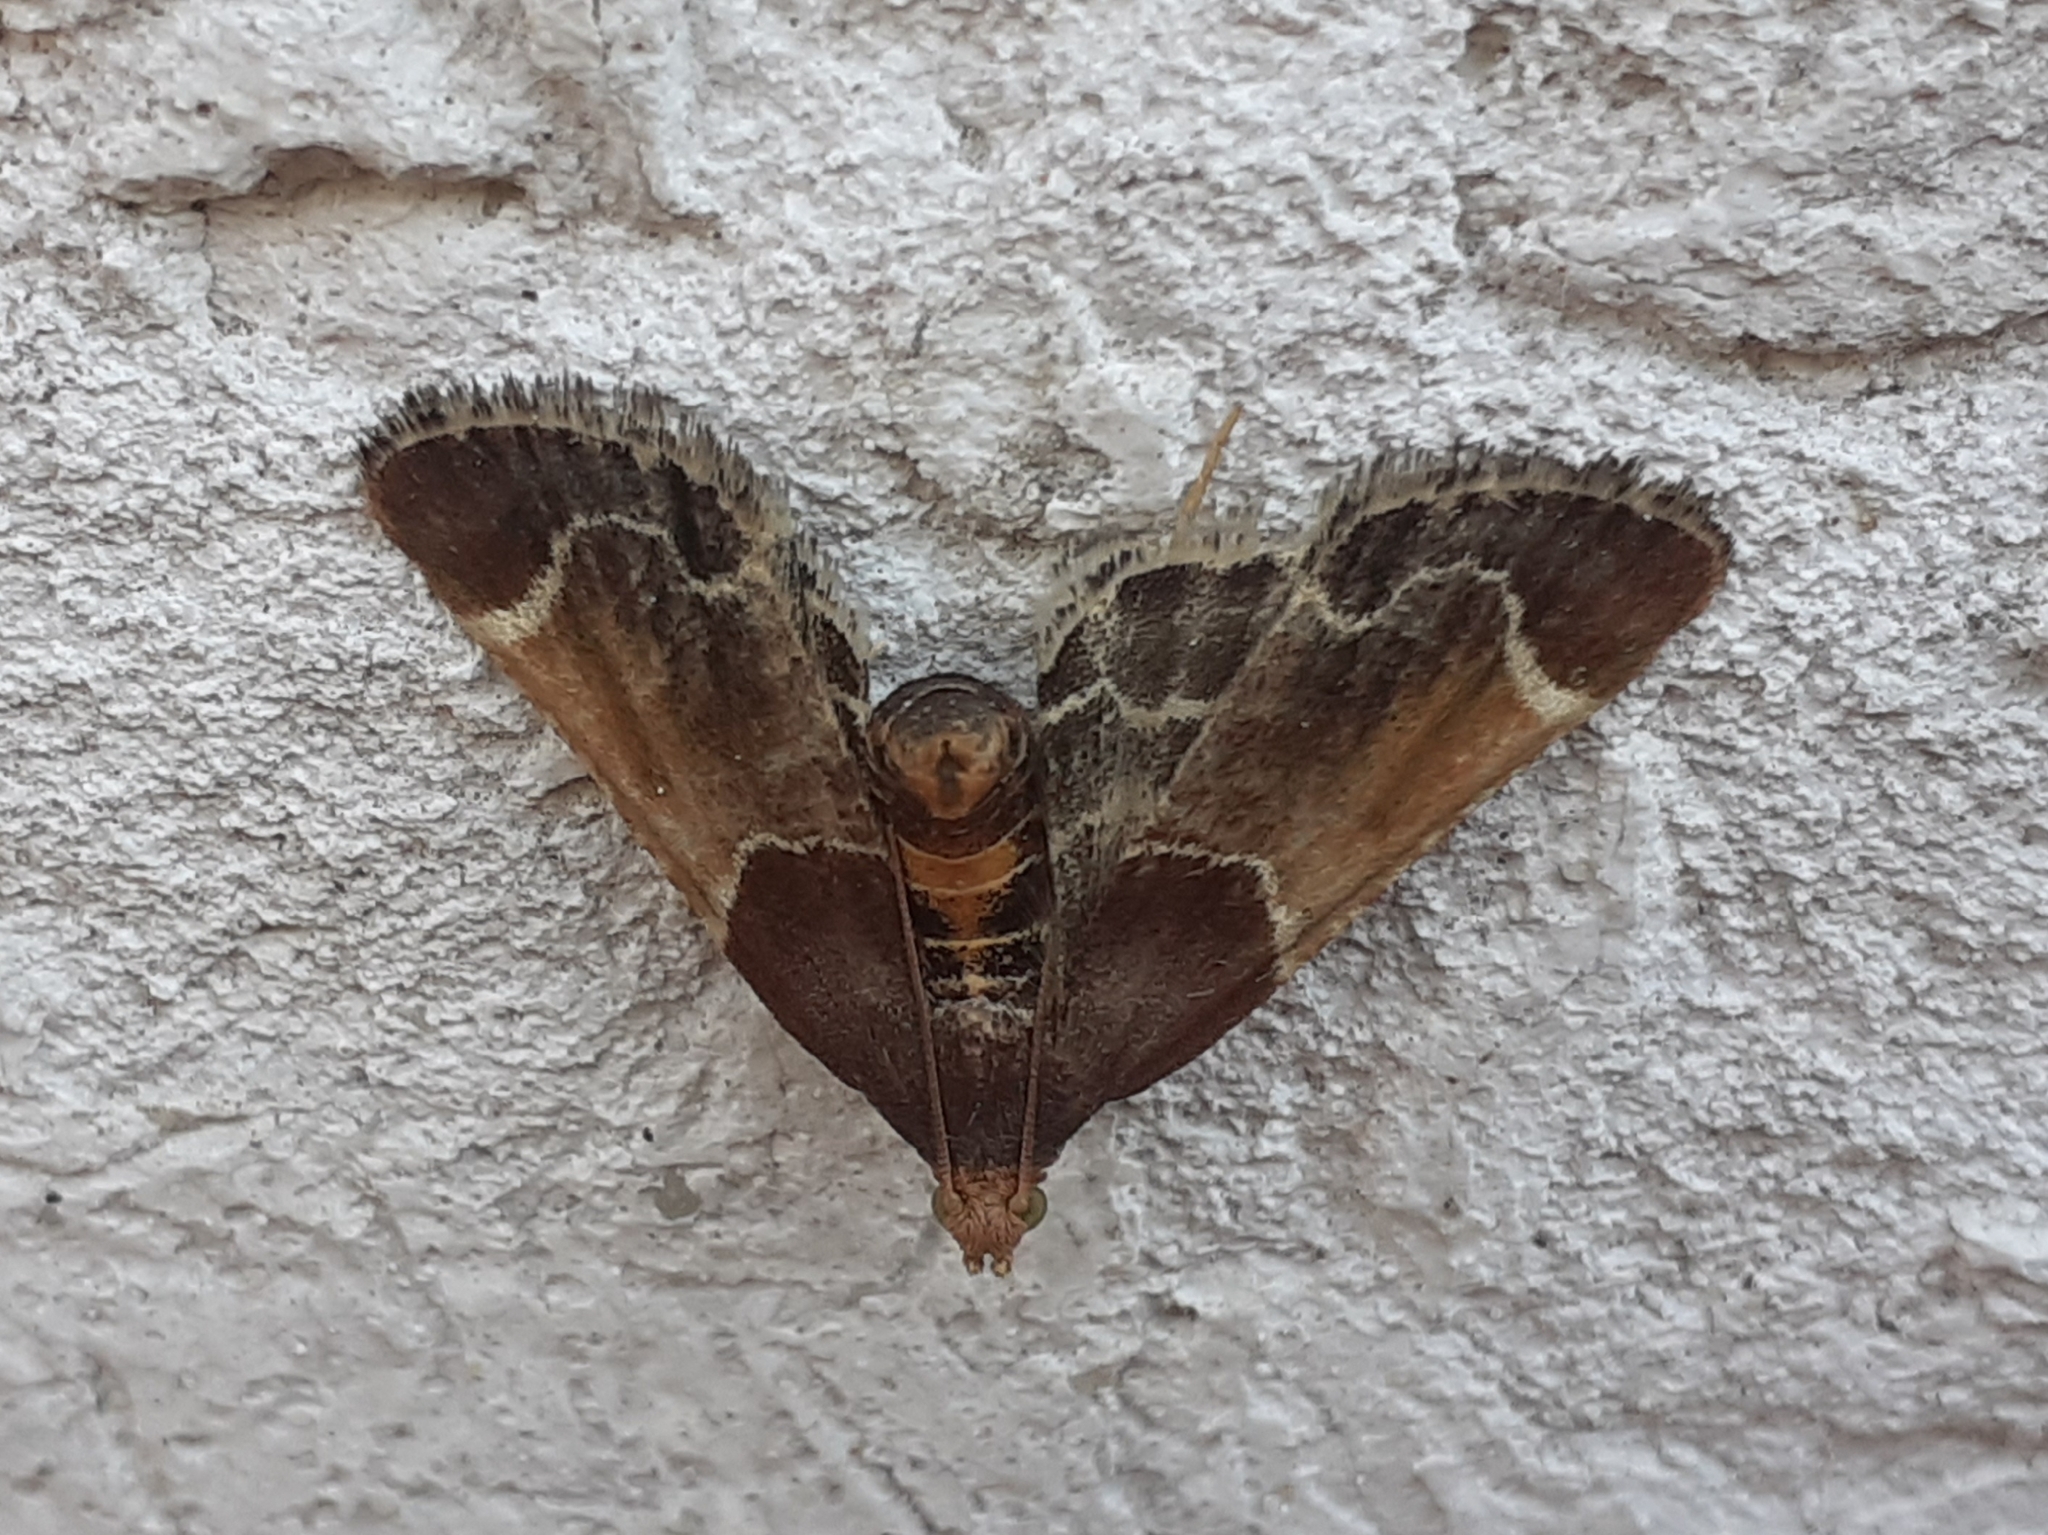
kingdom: Animalia
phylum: Arthropoda
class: Insecta
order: Lepidoptera
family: Pyralidae
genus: Pyralis
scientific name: Pyralis farinalis
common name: Meal moth
